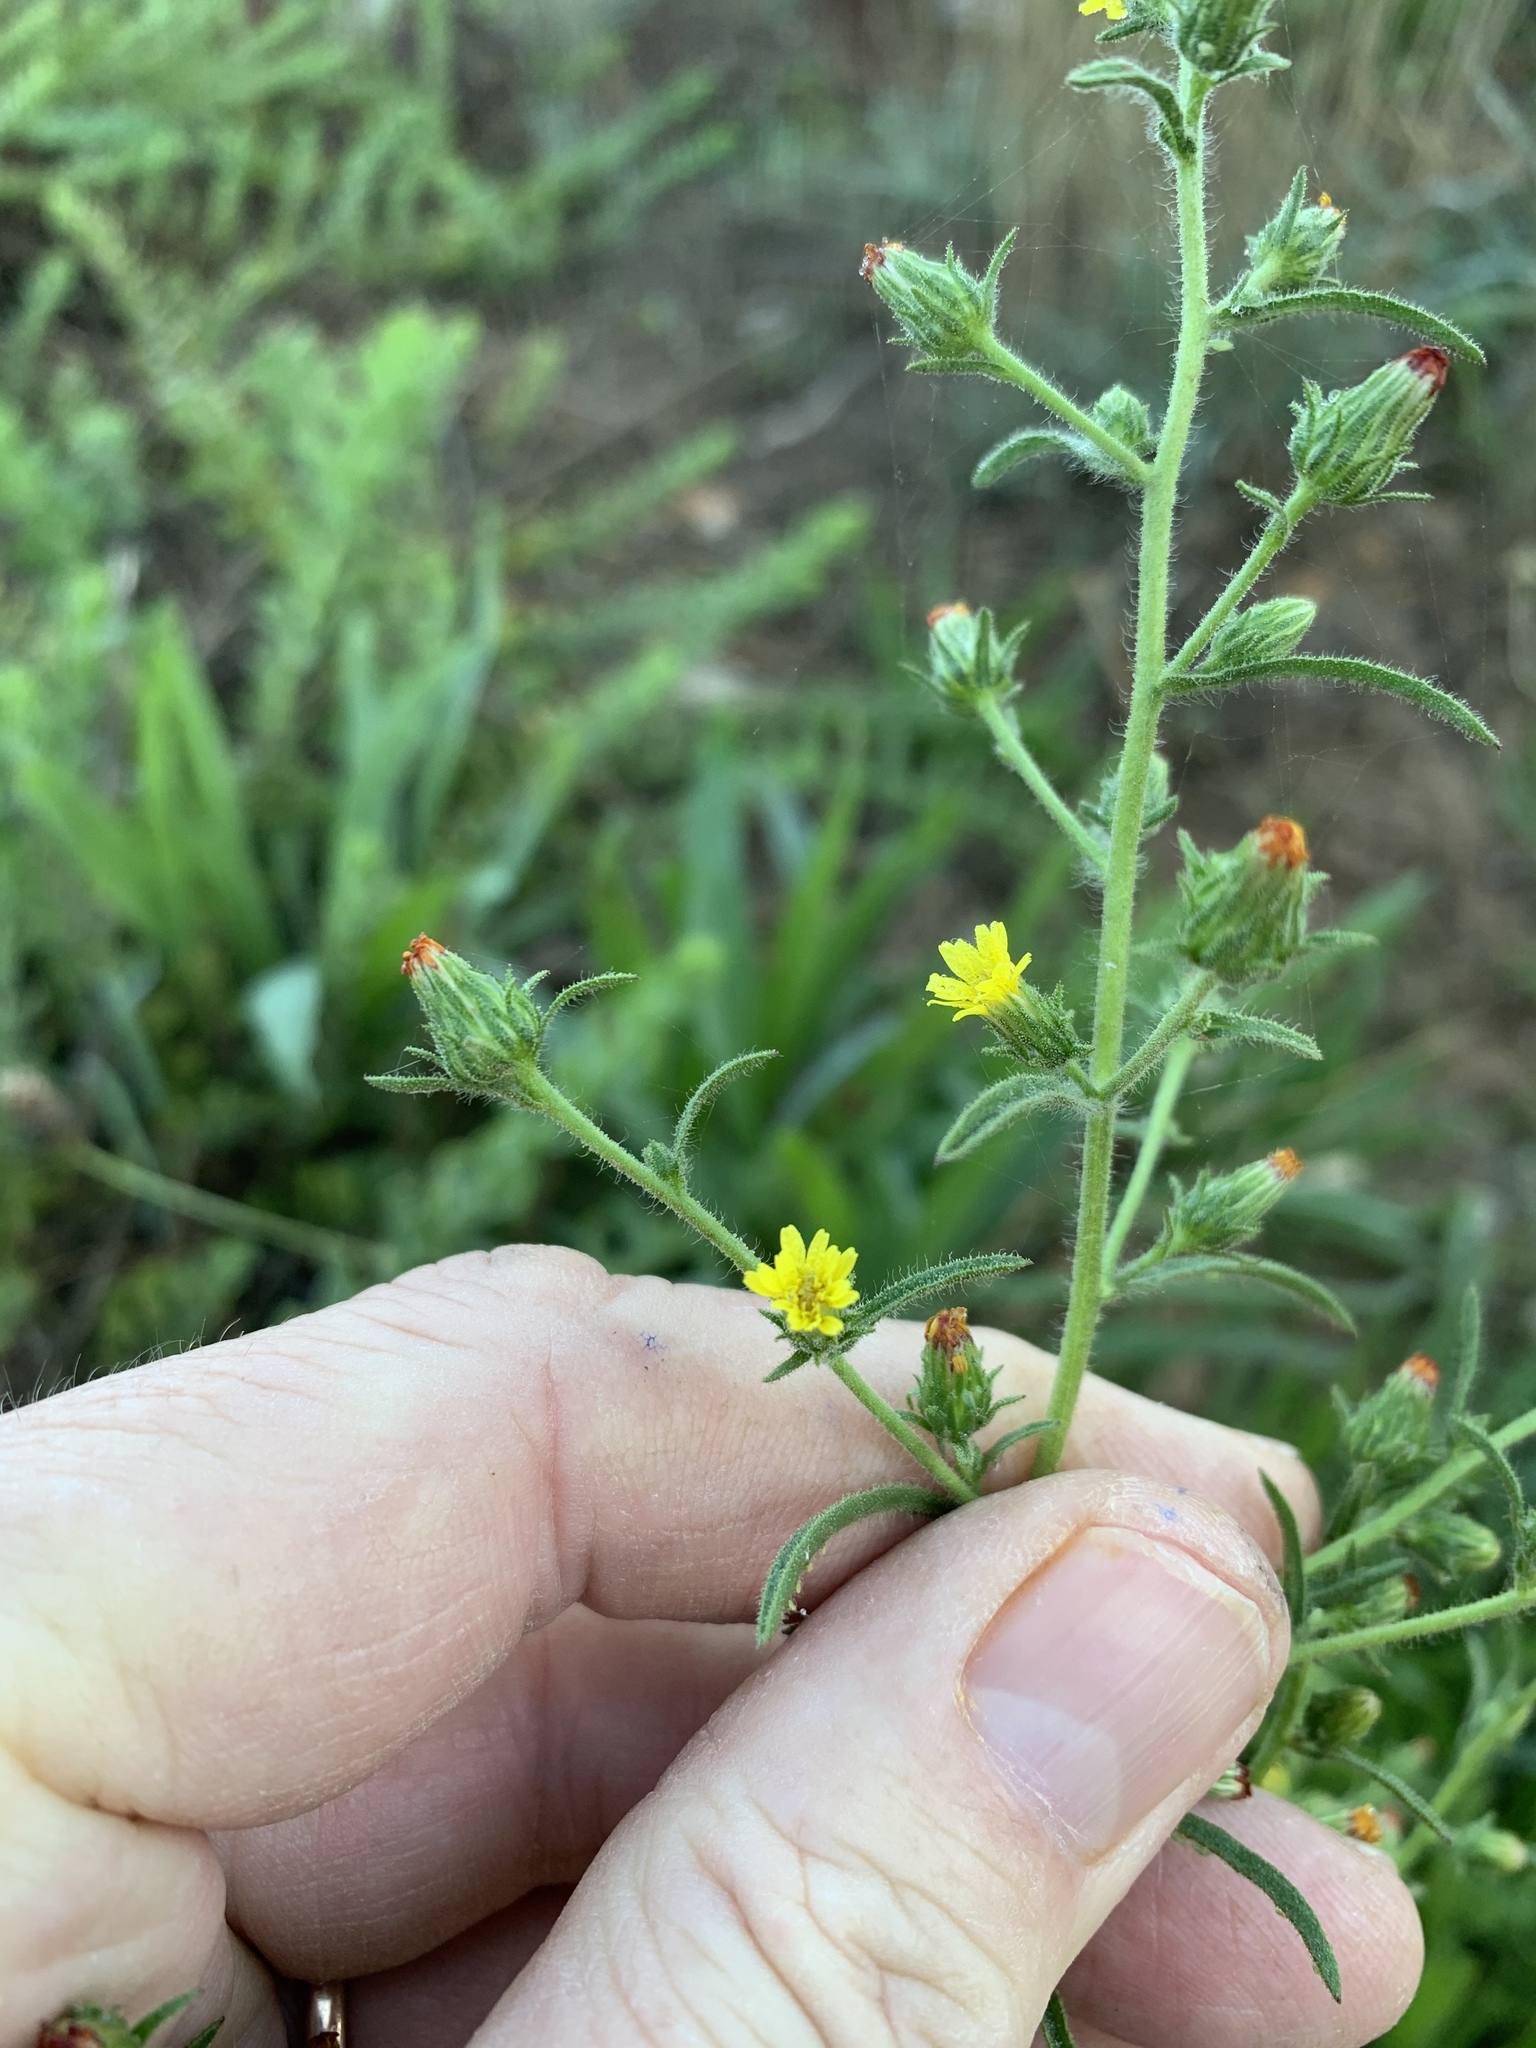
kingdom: Plantae
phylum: Tracheophyta
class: Magnoliopsida
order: Asterales
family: Asteraceae
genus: Dittrichia
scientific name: Dittrichia graveolens
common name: Stinking fleabane
